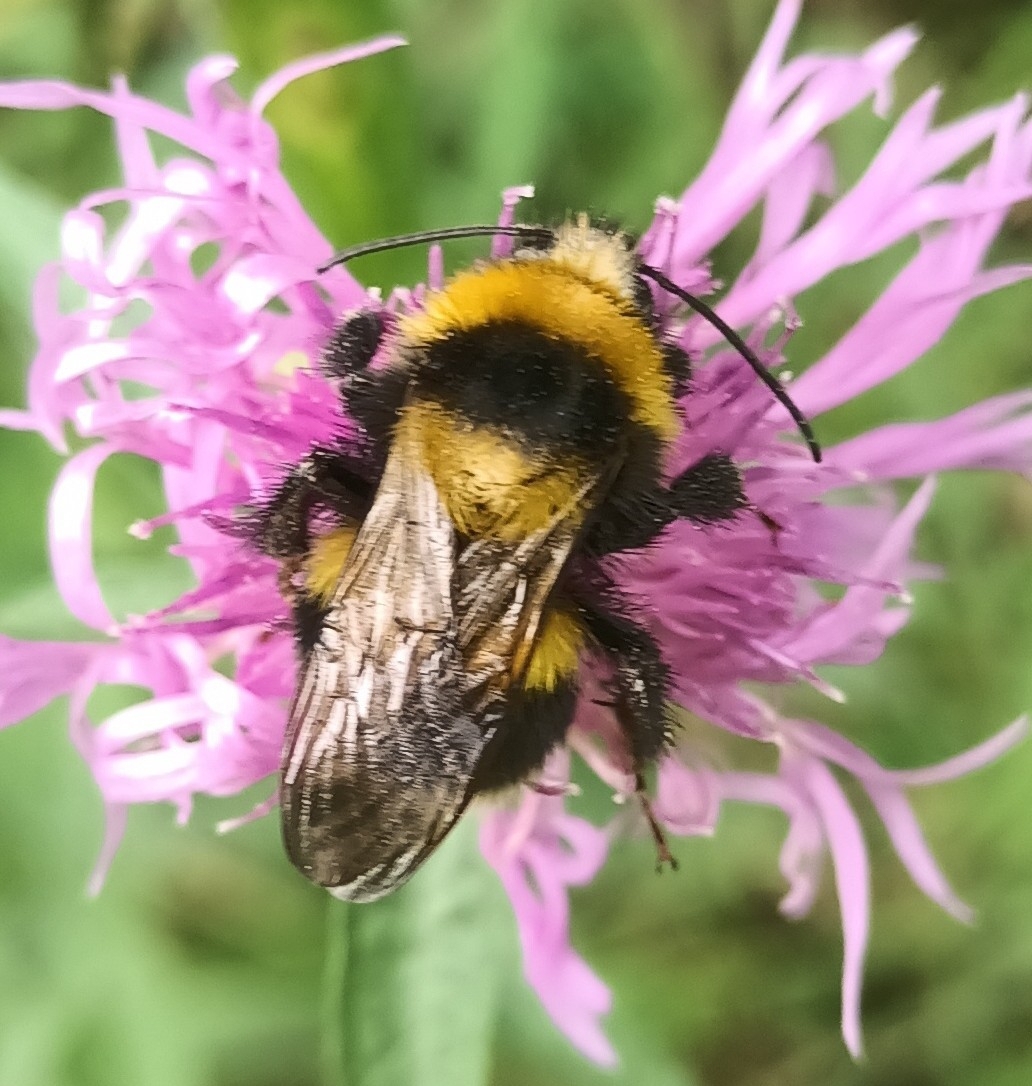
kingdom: Animalia
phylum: Arthropoda
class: Insecta
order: Hymenoptera
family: Apidae
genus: Bombus
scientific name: Bombus hortorum
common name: Garden bumblebee
